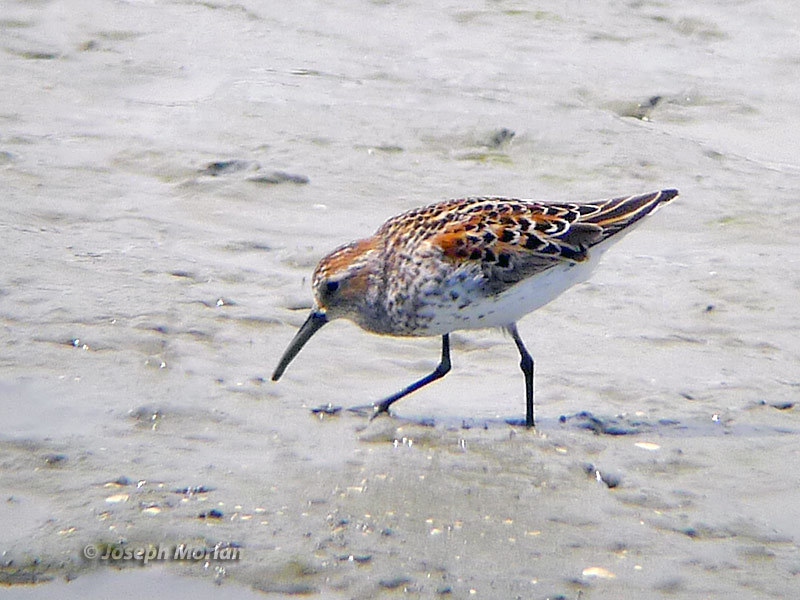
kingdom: Animalia
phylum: Chordata
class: Aves
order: Charadriiformes
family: Scolopacidae
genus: Calidris
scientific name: Calidris mauri
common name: Western sandpiper
